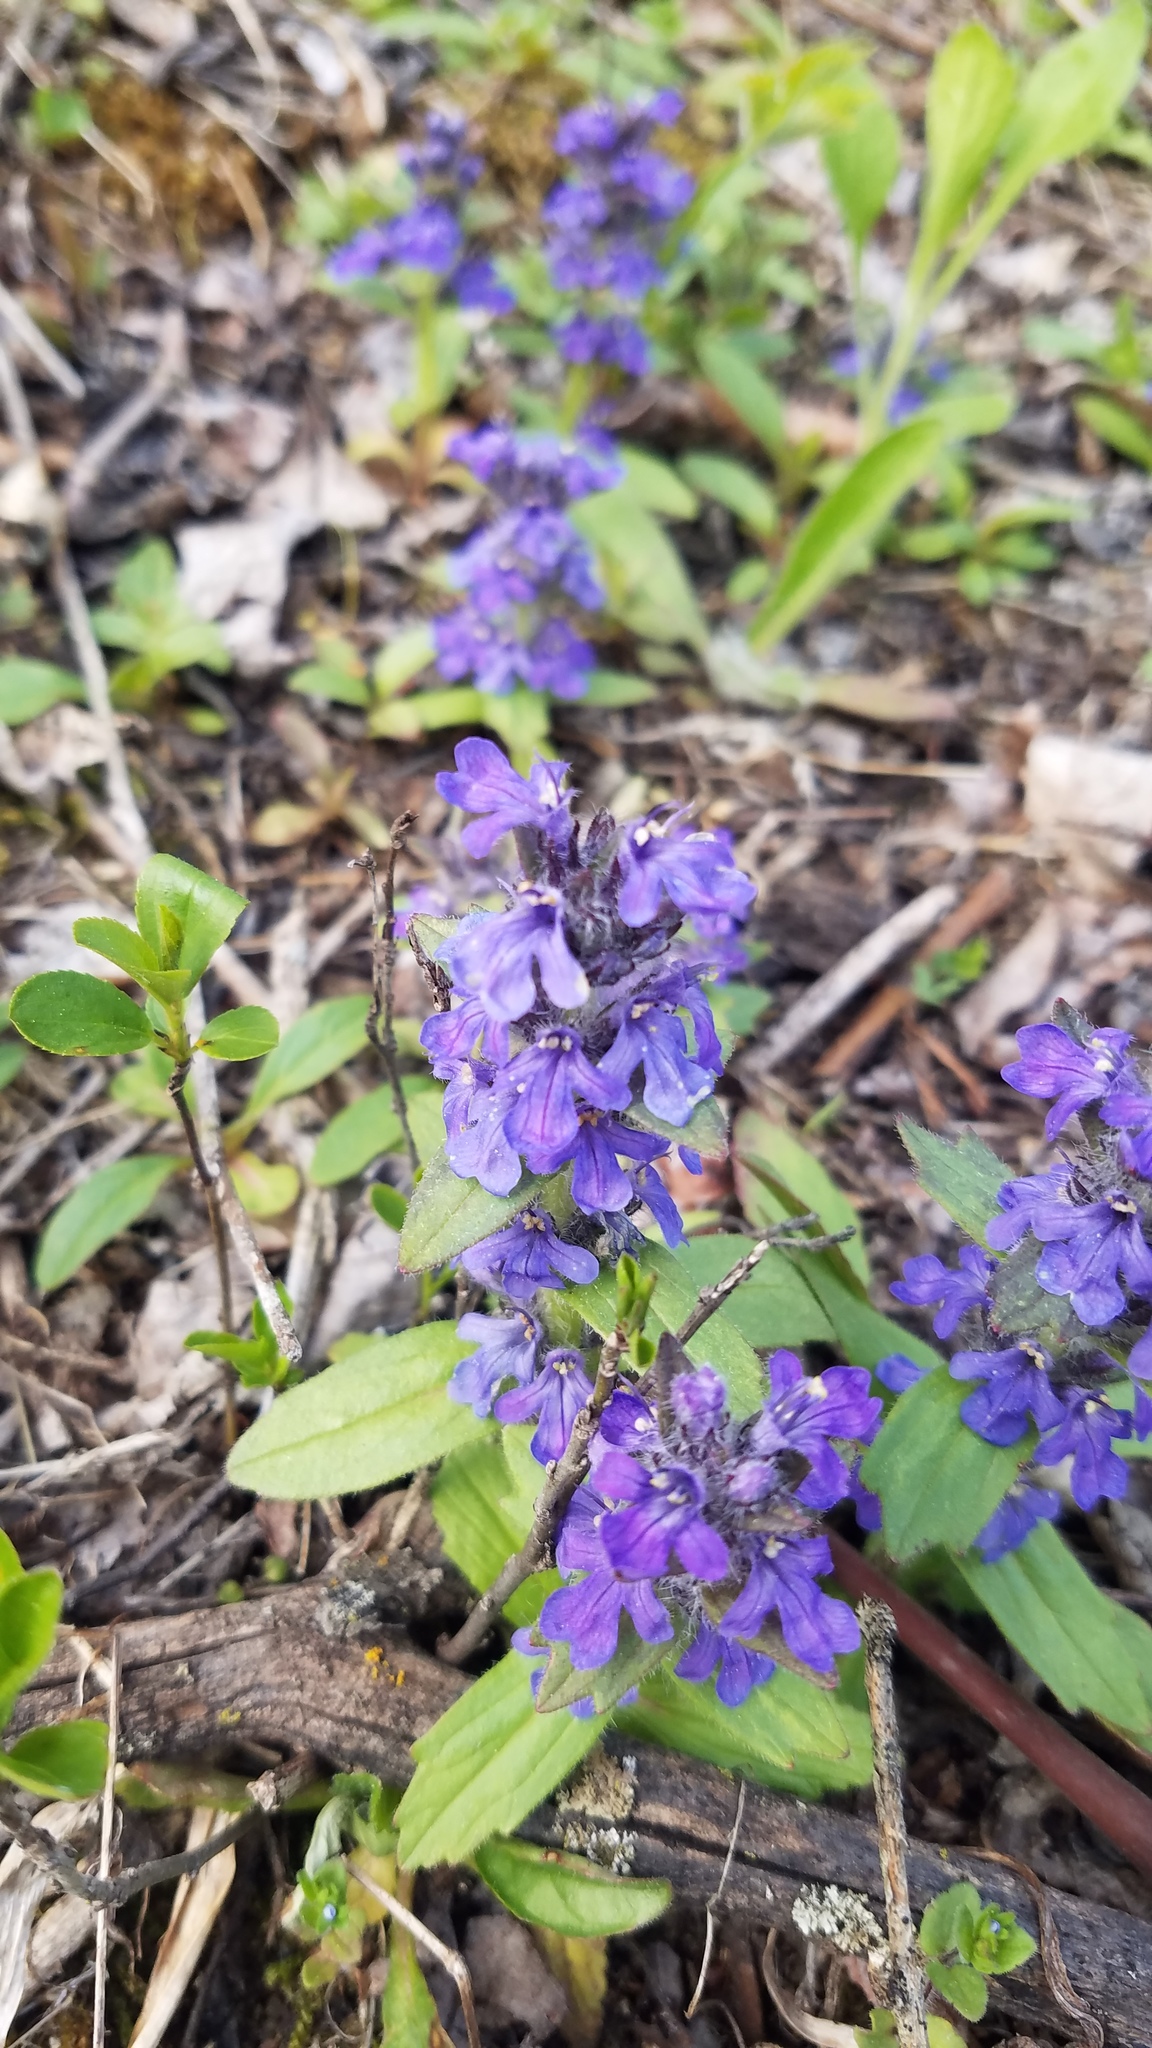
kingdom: Plantae
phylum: Tracheophyta
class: Magnoliopsida
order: Lamiales
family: Lamiaceae
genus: Ajuga
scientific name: Ajuga genevensis
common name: Blue bugle
